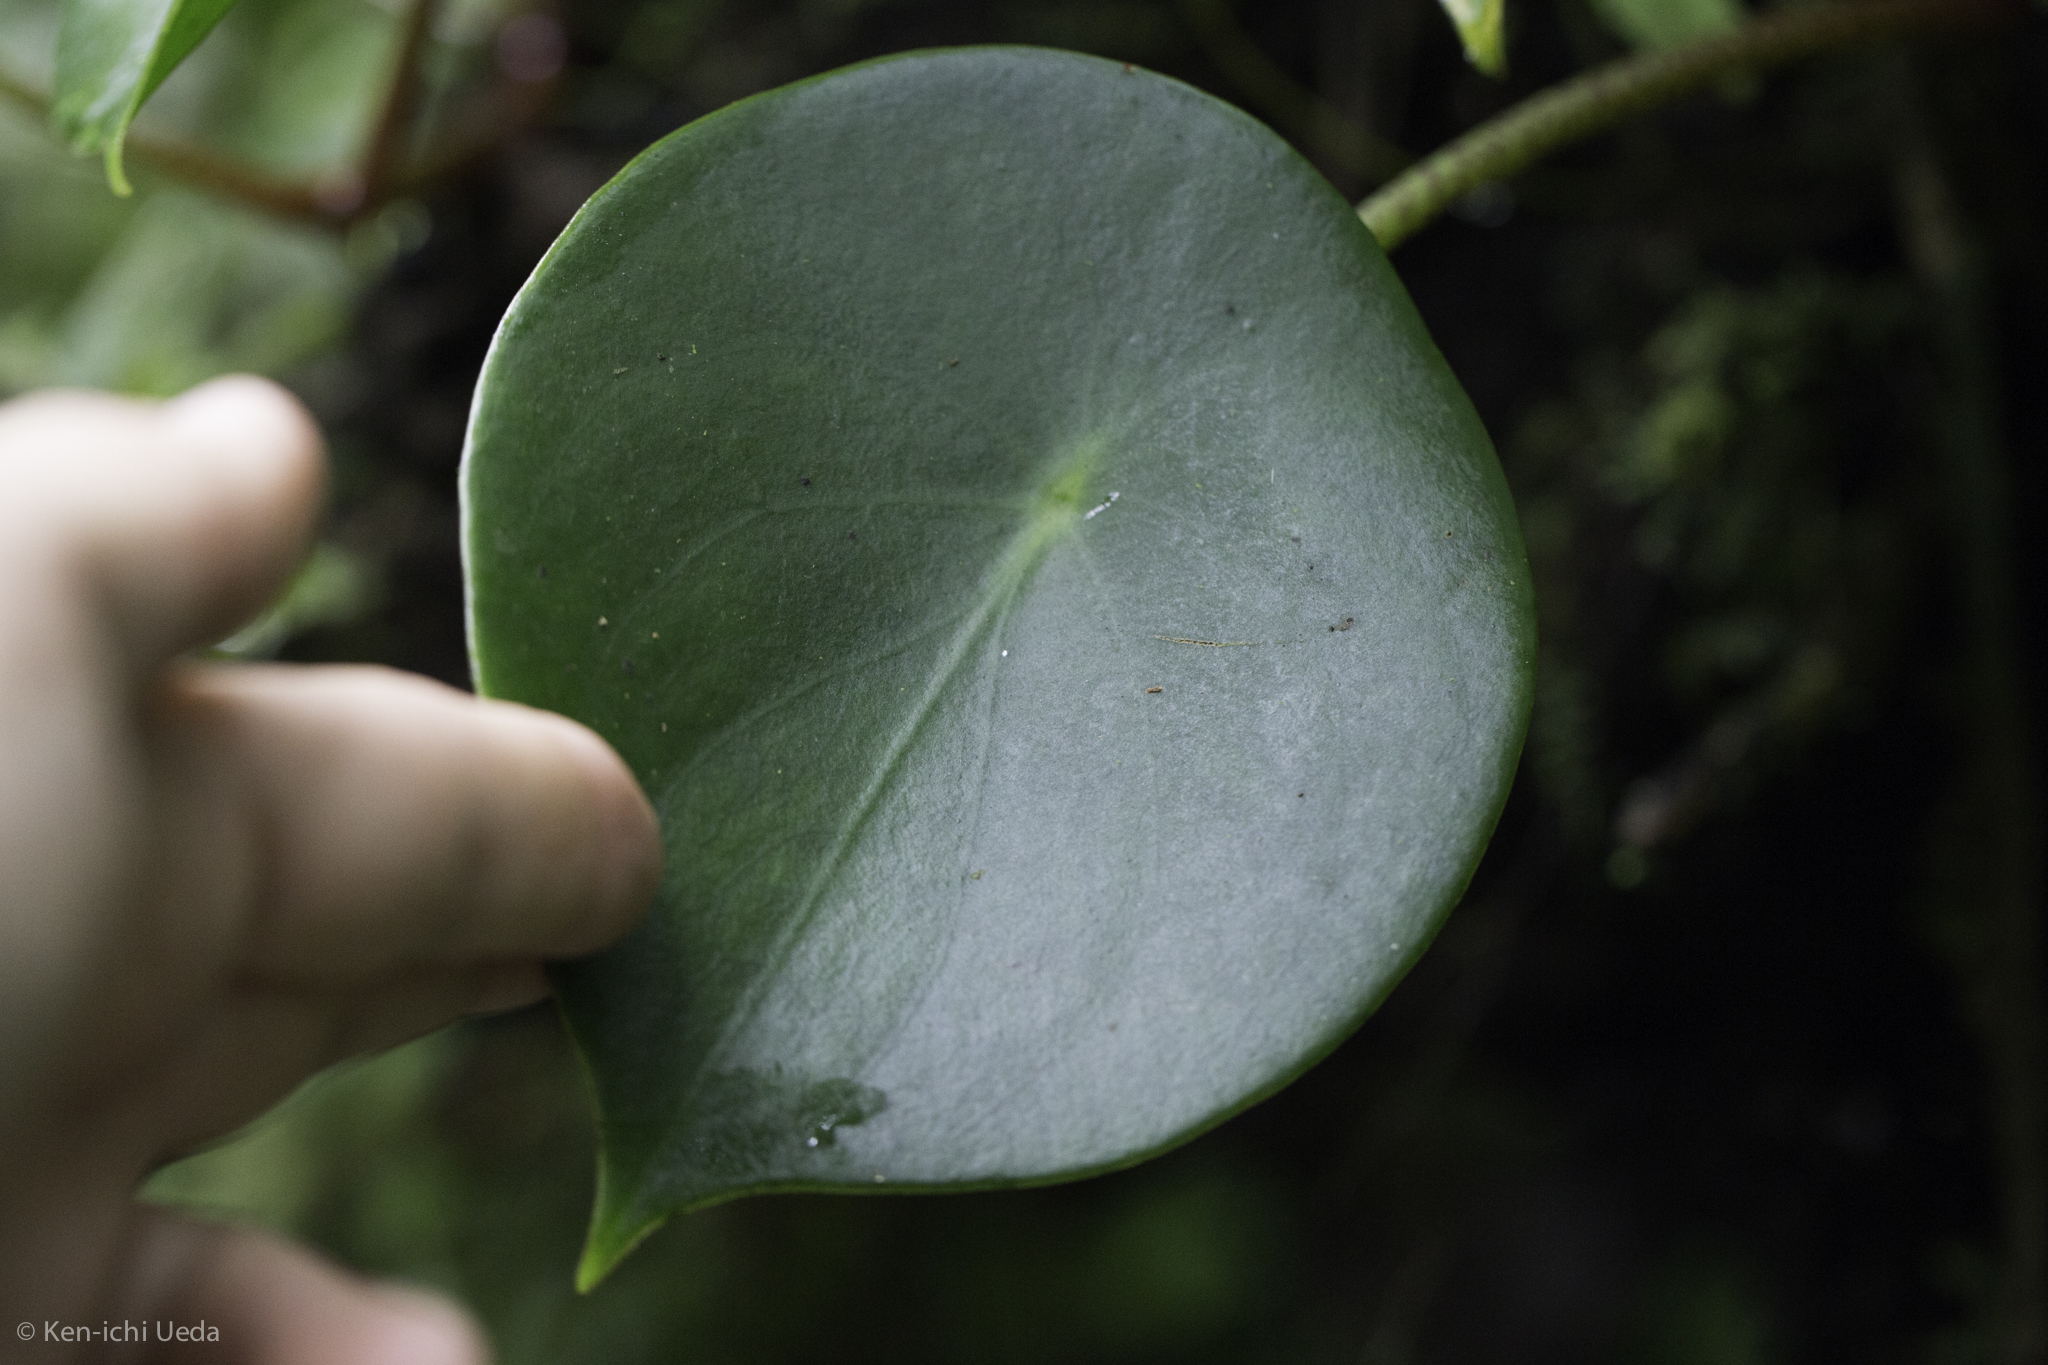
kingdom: Plantae
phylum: Tracheophyta
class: Magnoliopsida
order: Piperales
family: Piperaceae
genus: Peperomia
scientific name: Peperomia hernandiifolia
